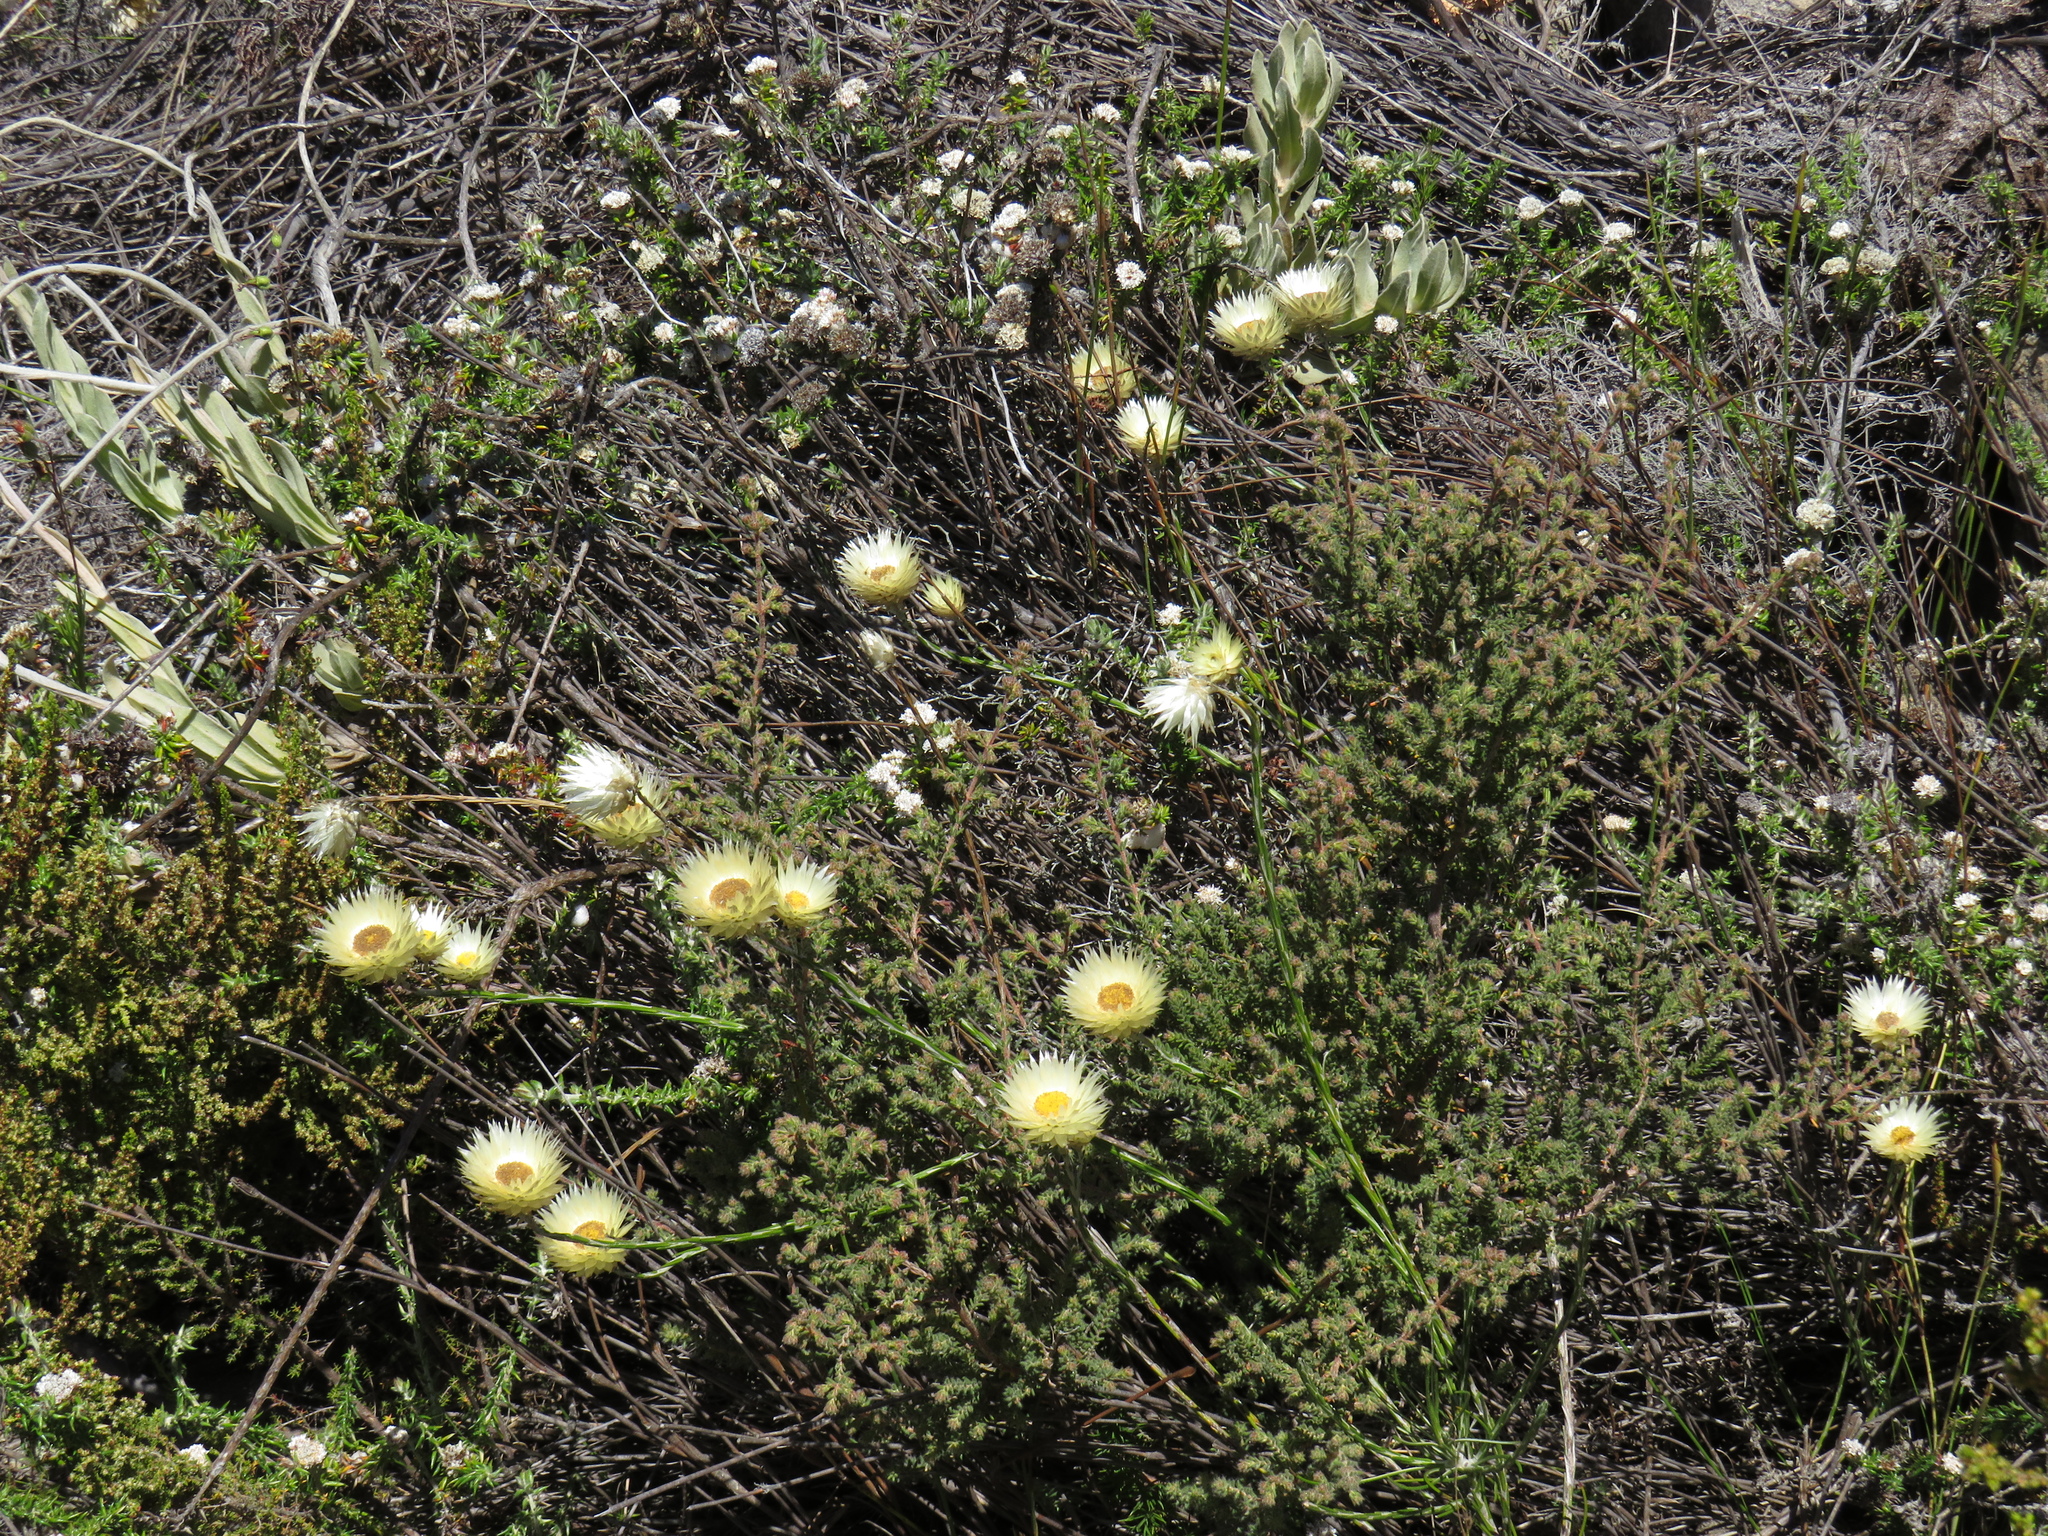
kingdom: Plantae
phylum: Tracheophyta
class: Magnoliopsida
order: Asterales
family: Asteraceae
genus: Edmondia
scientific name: Edmondia sesamoides
